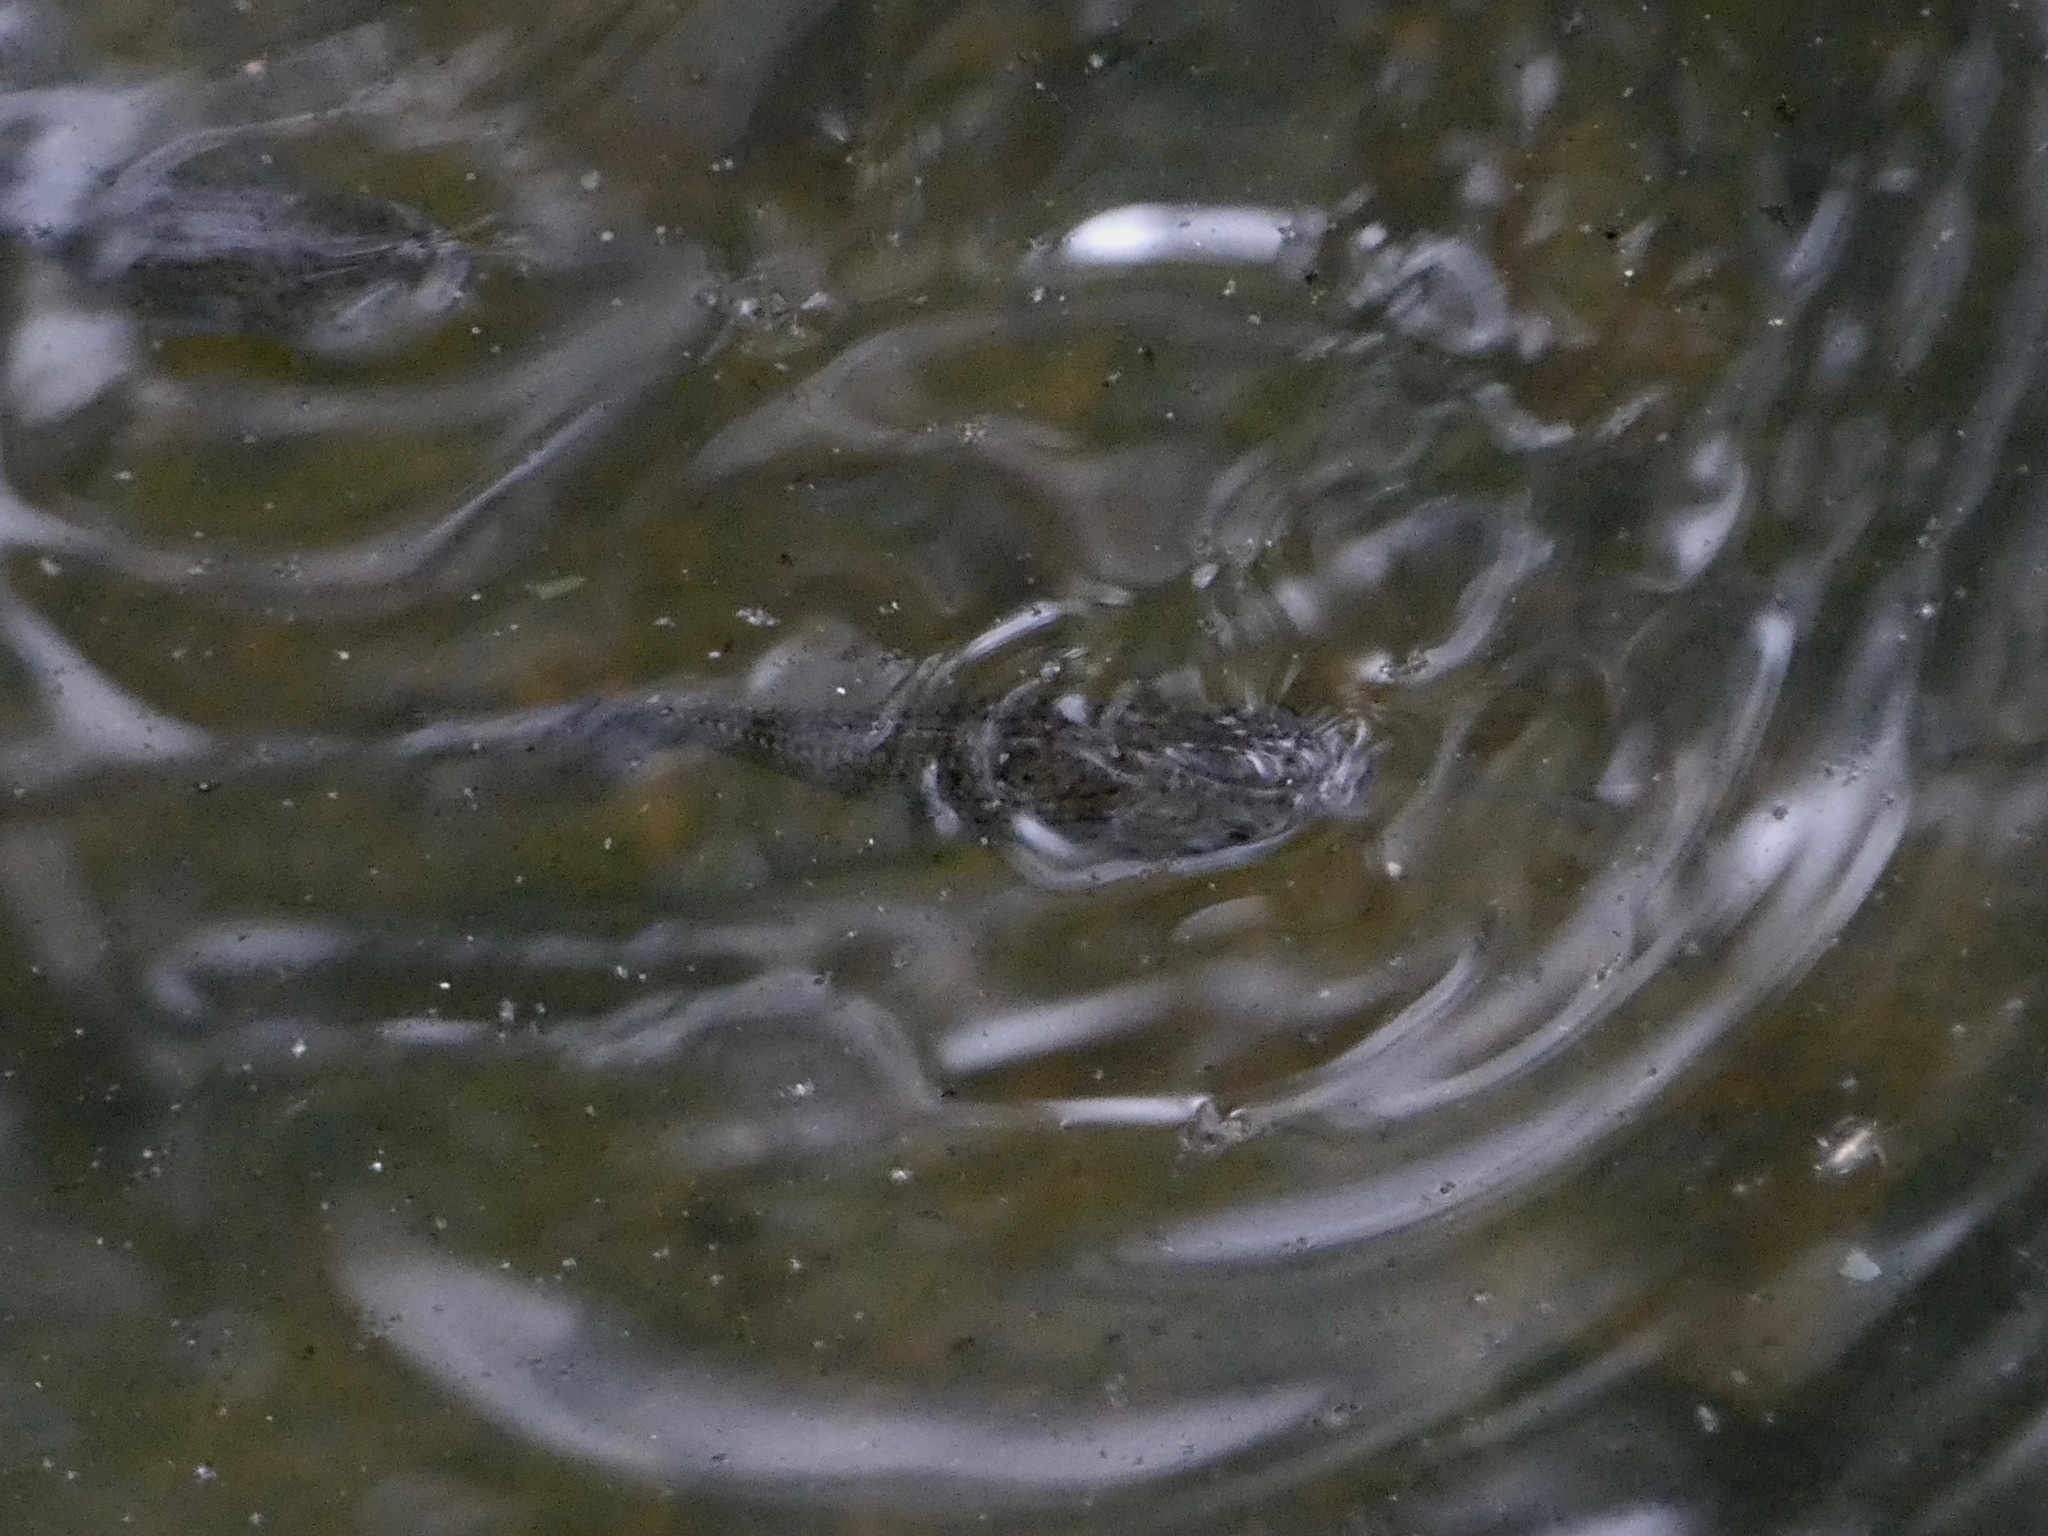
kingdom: Animalia
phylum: Chordata
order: Cyprinodontiformes
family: Poeciliidae
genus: Poecilia
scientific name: Poecilia latipinna
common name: Sailfin molly
